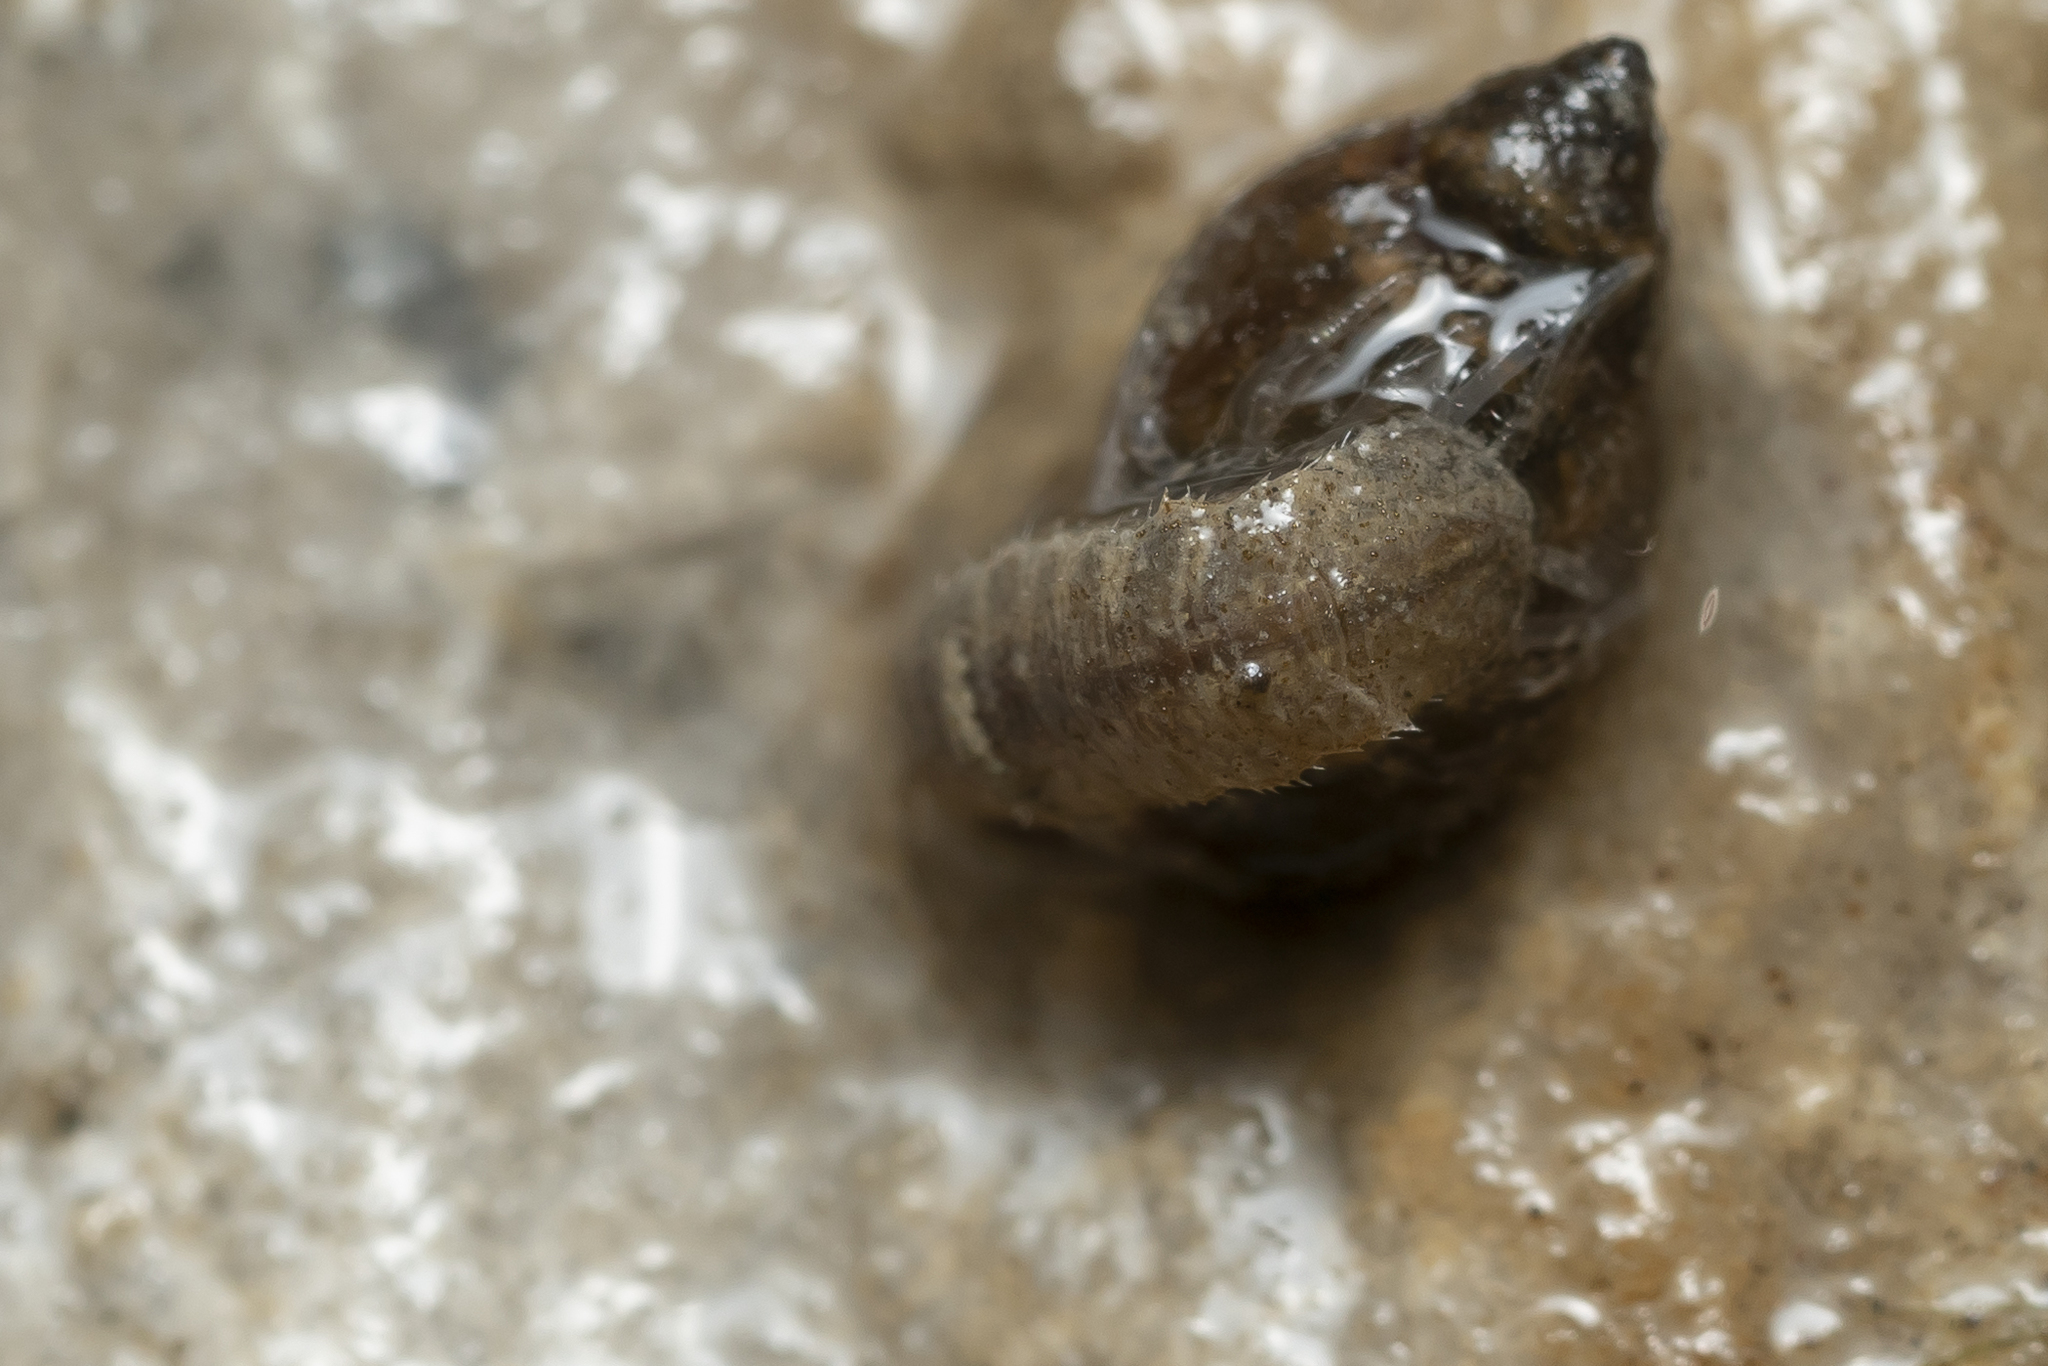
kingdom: Animalia
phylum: Arthropoda
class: Malacostraca
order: Isopoda
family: Asellidae
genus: Proasellus
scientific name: Proasellus coxalis
